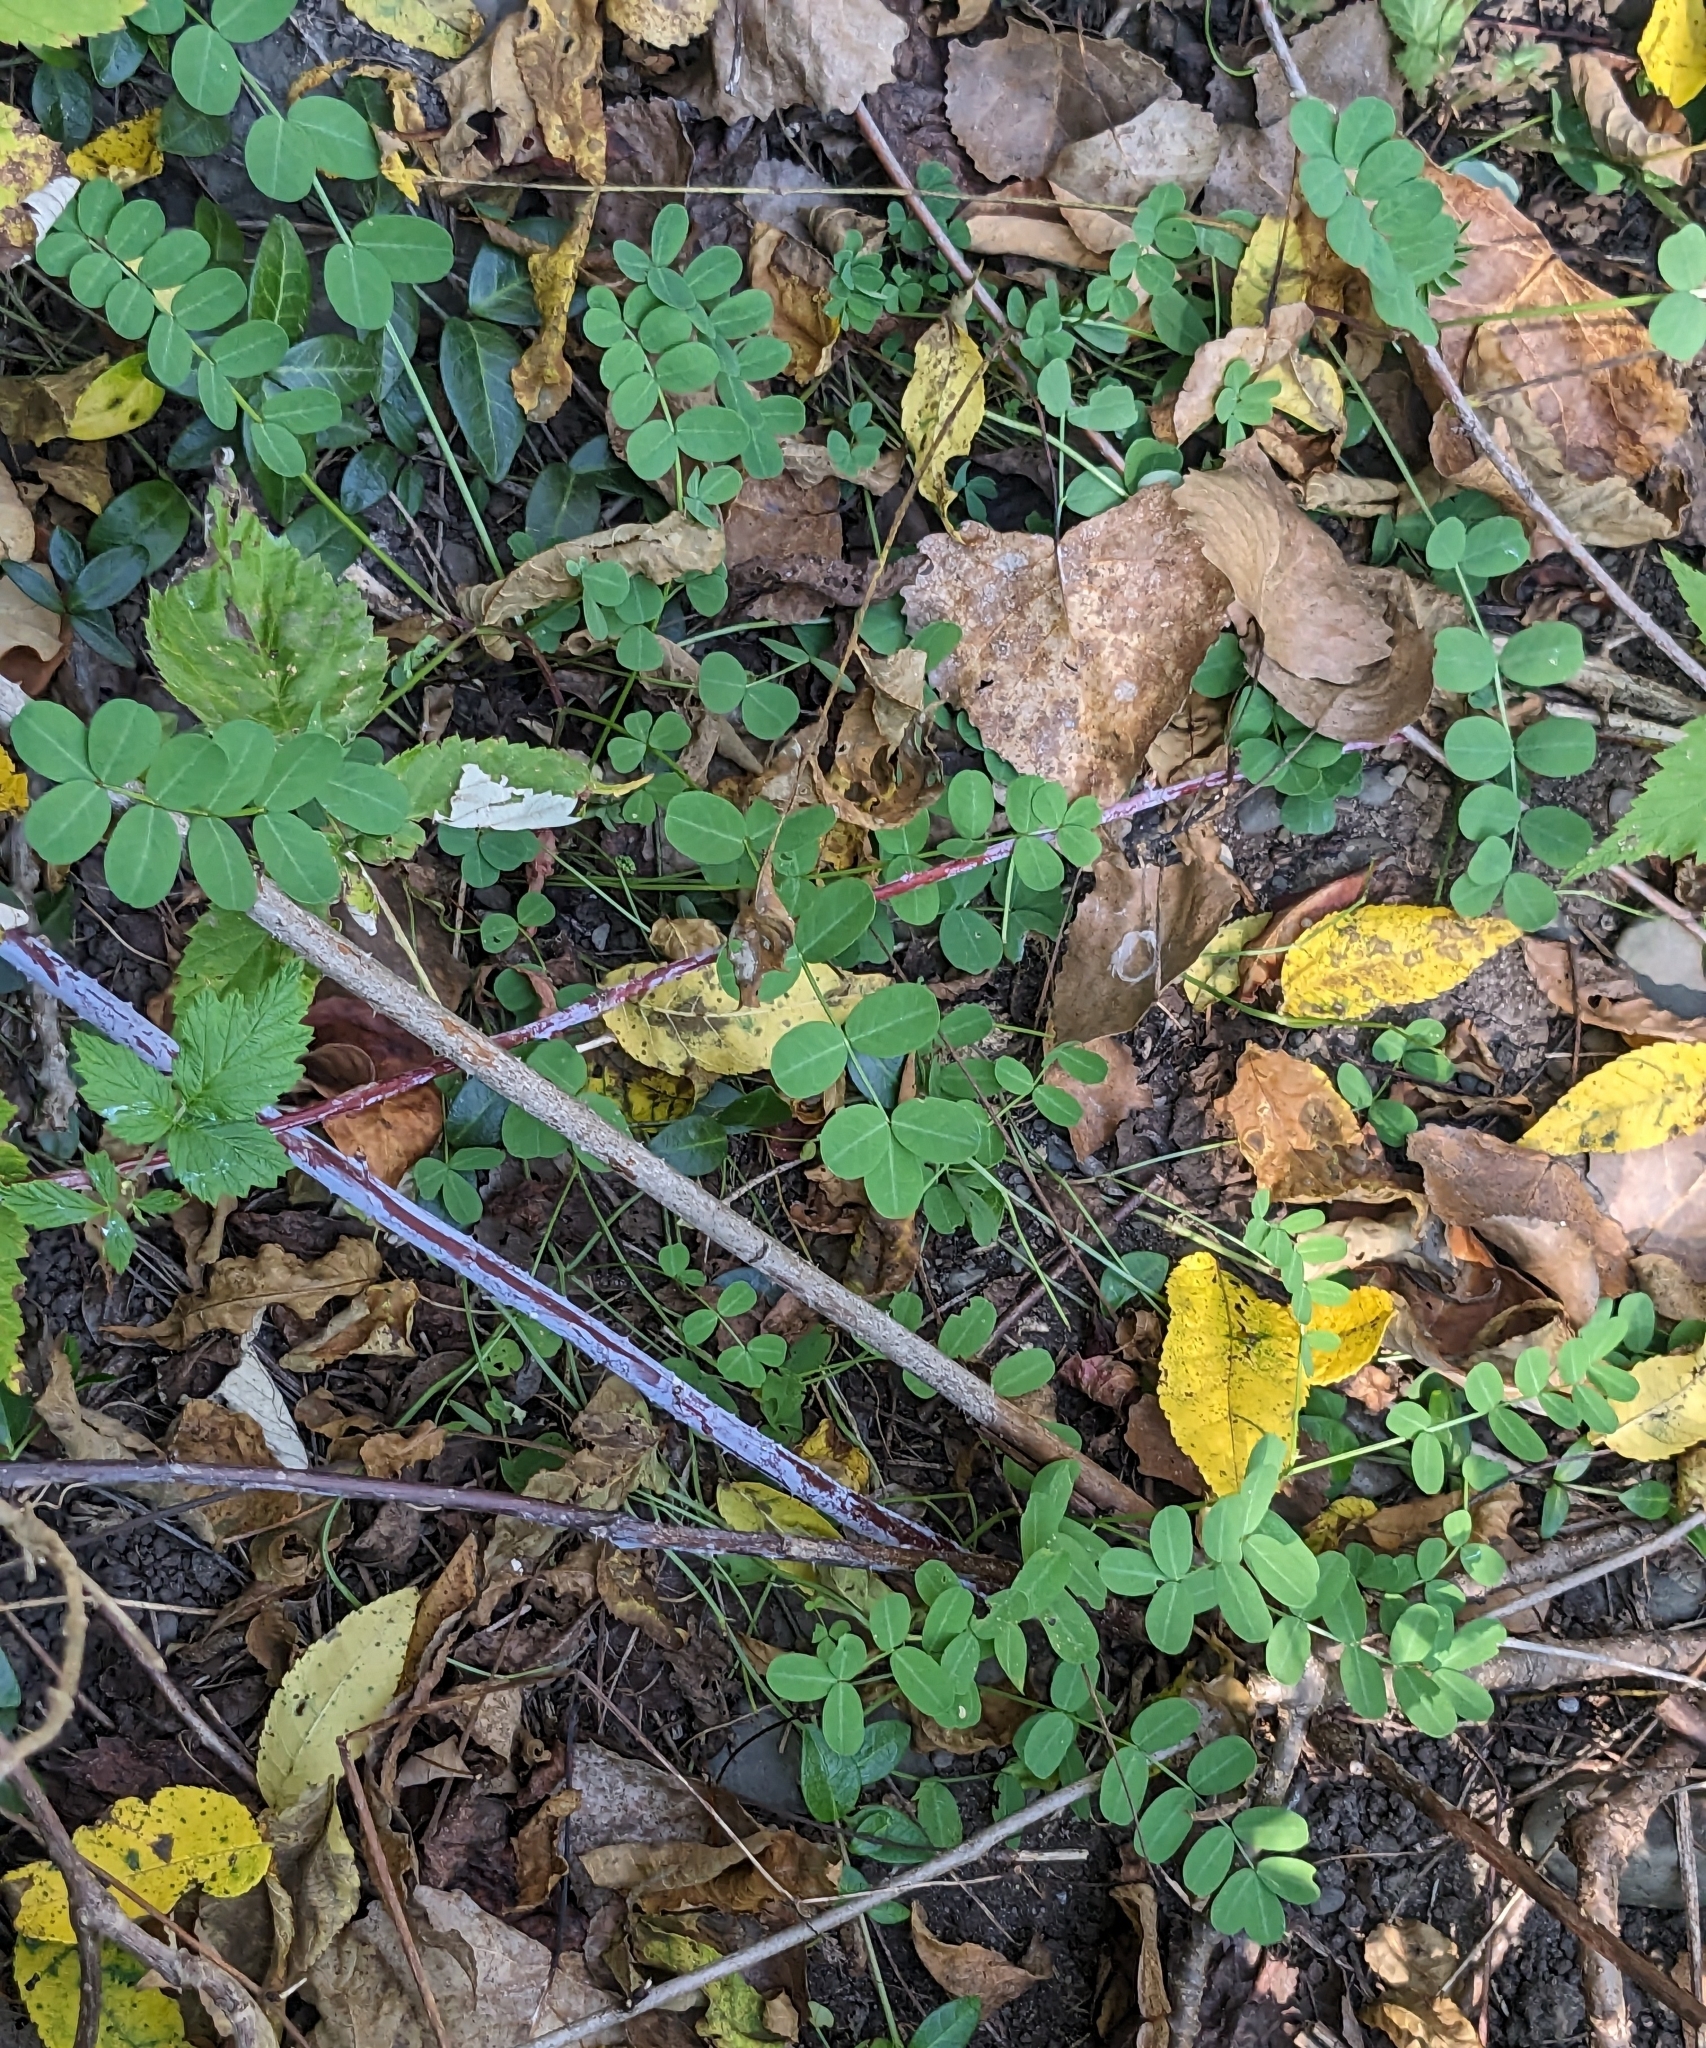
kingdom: Plantae
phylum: Tracheophyta
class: Magnoliopsida
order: Fabales
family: Fabaceae
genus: Coronilla
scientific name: Coronilla varia
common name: Crownvetch
